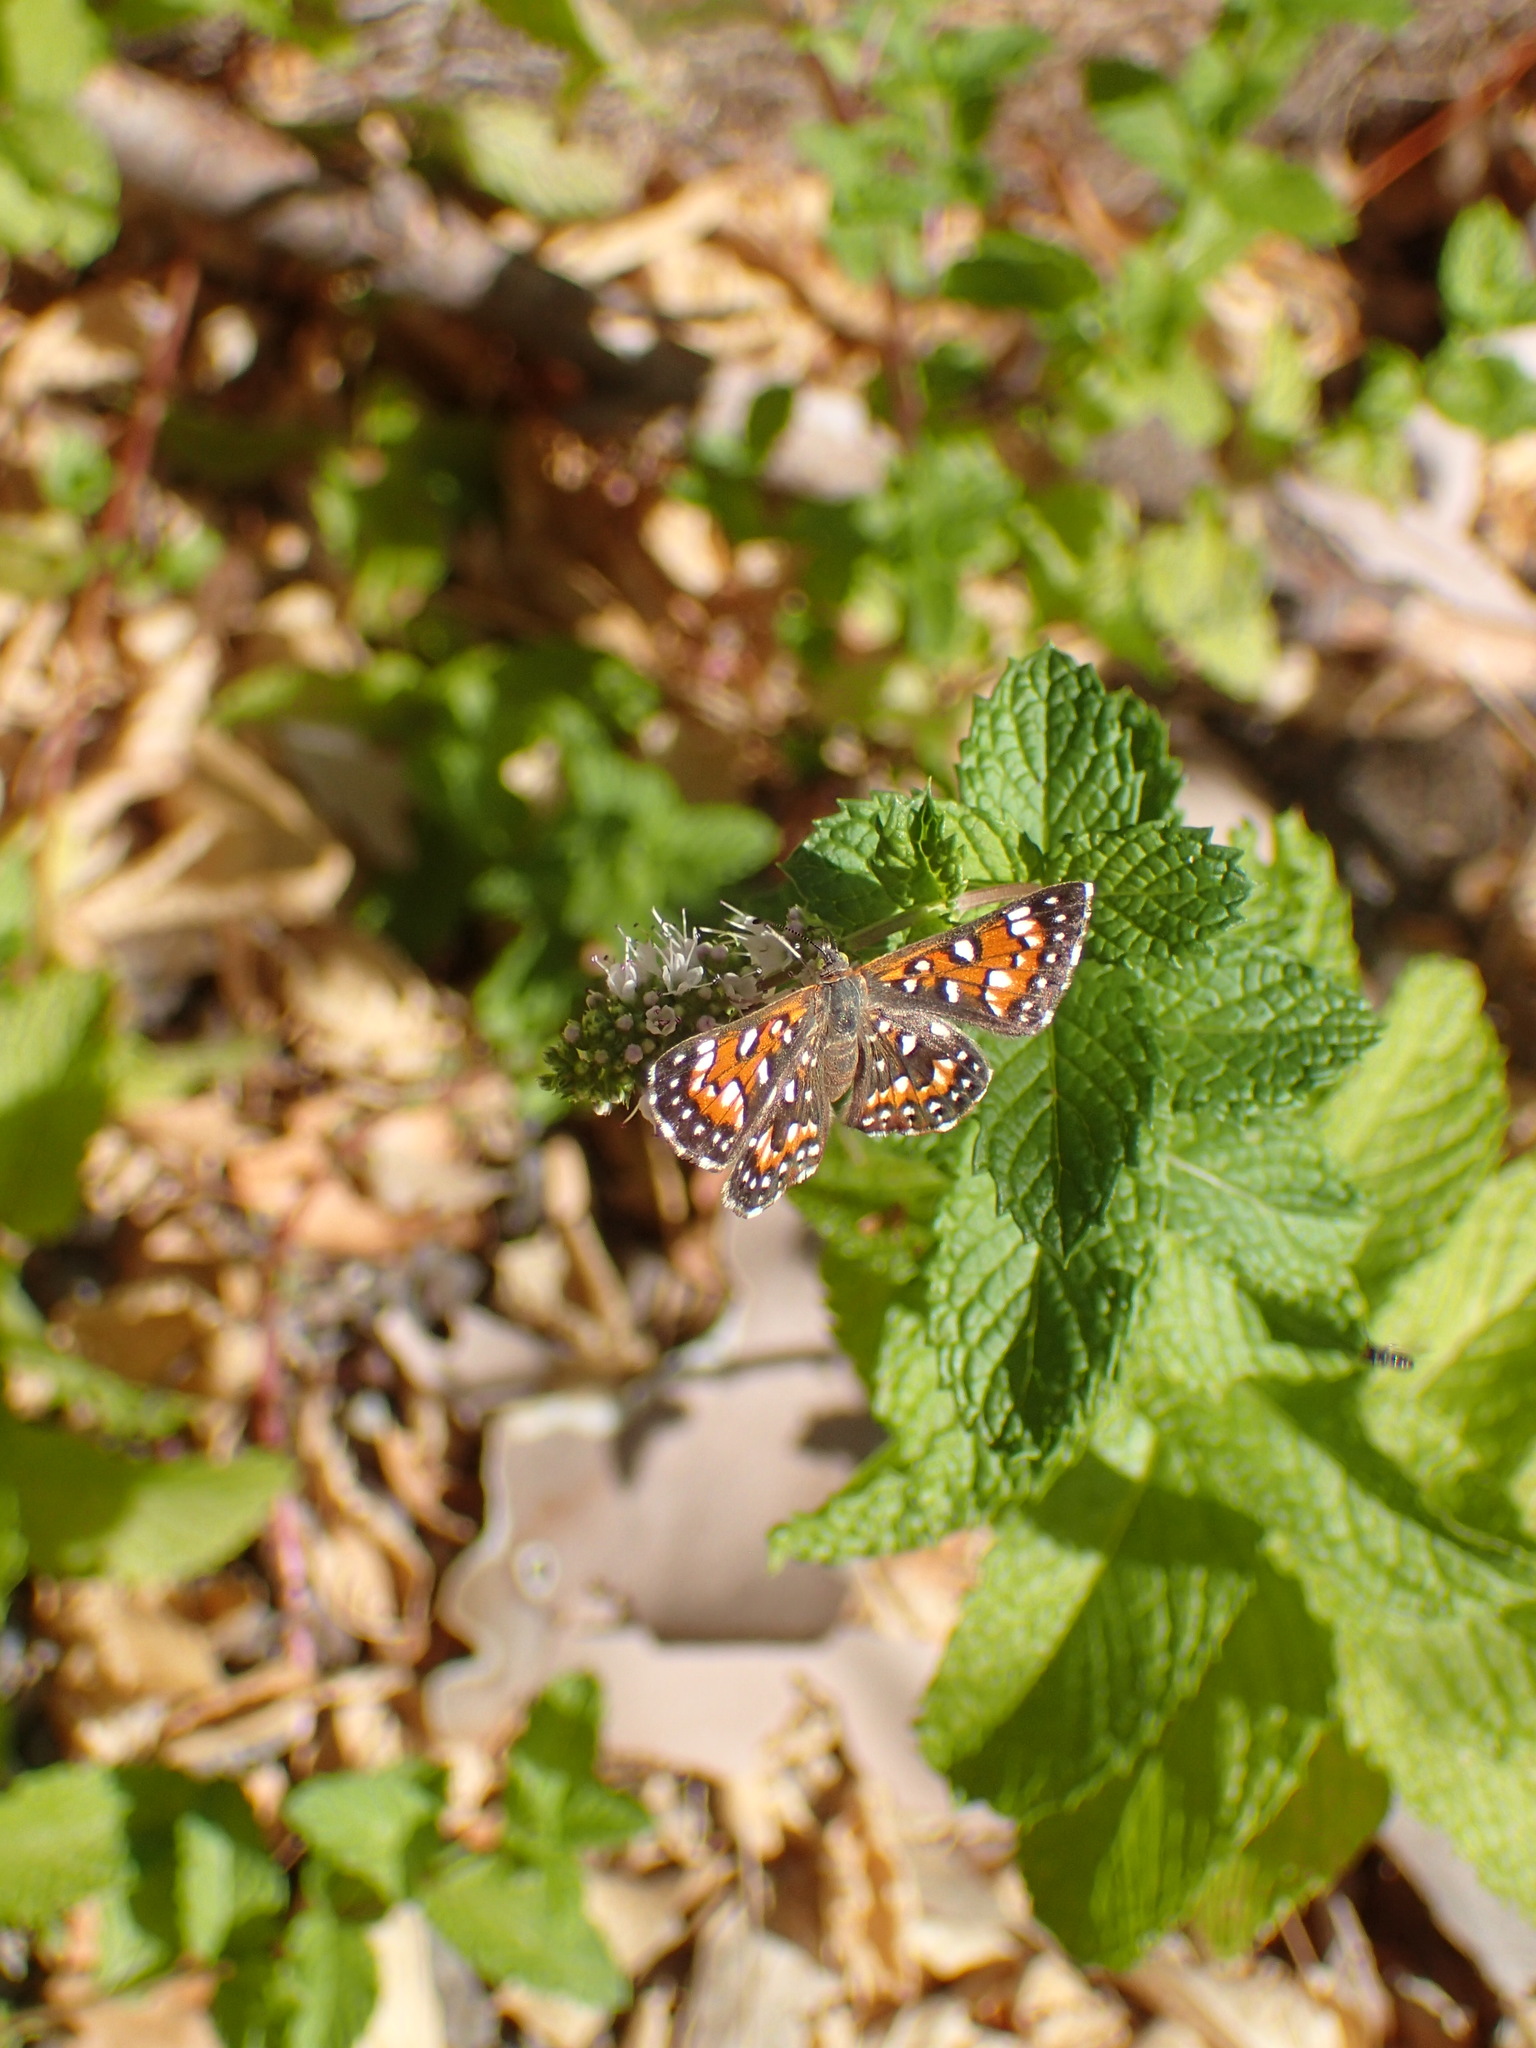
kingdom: Animalia
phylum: Arthropoda
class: Insecta
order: Lepidoptera
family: Riodinidae
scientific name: Riodinidae
